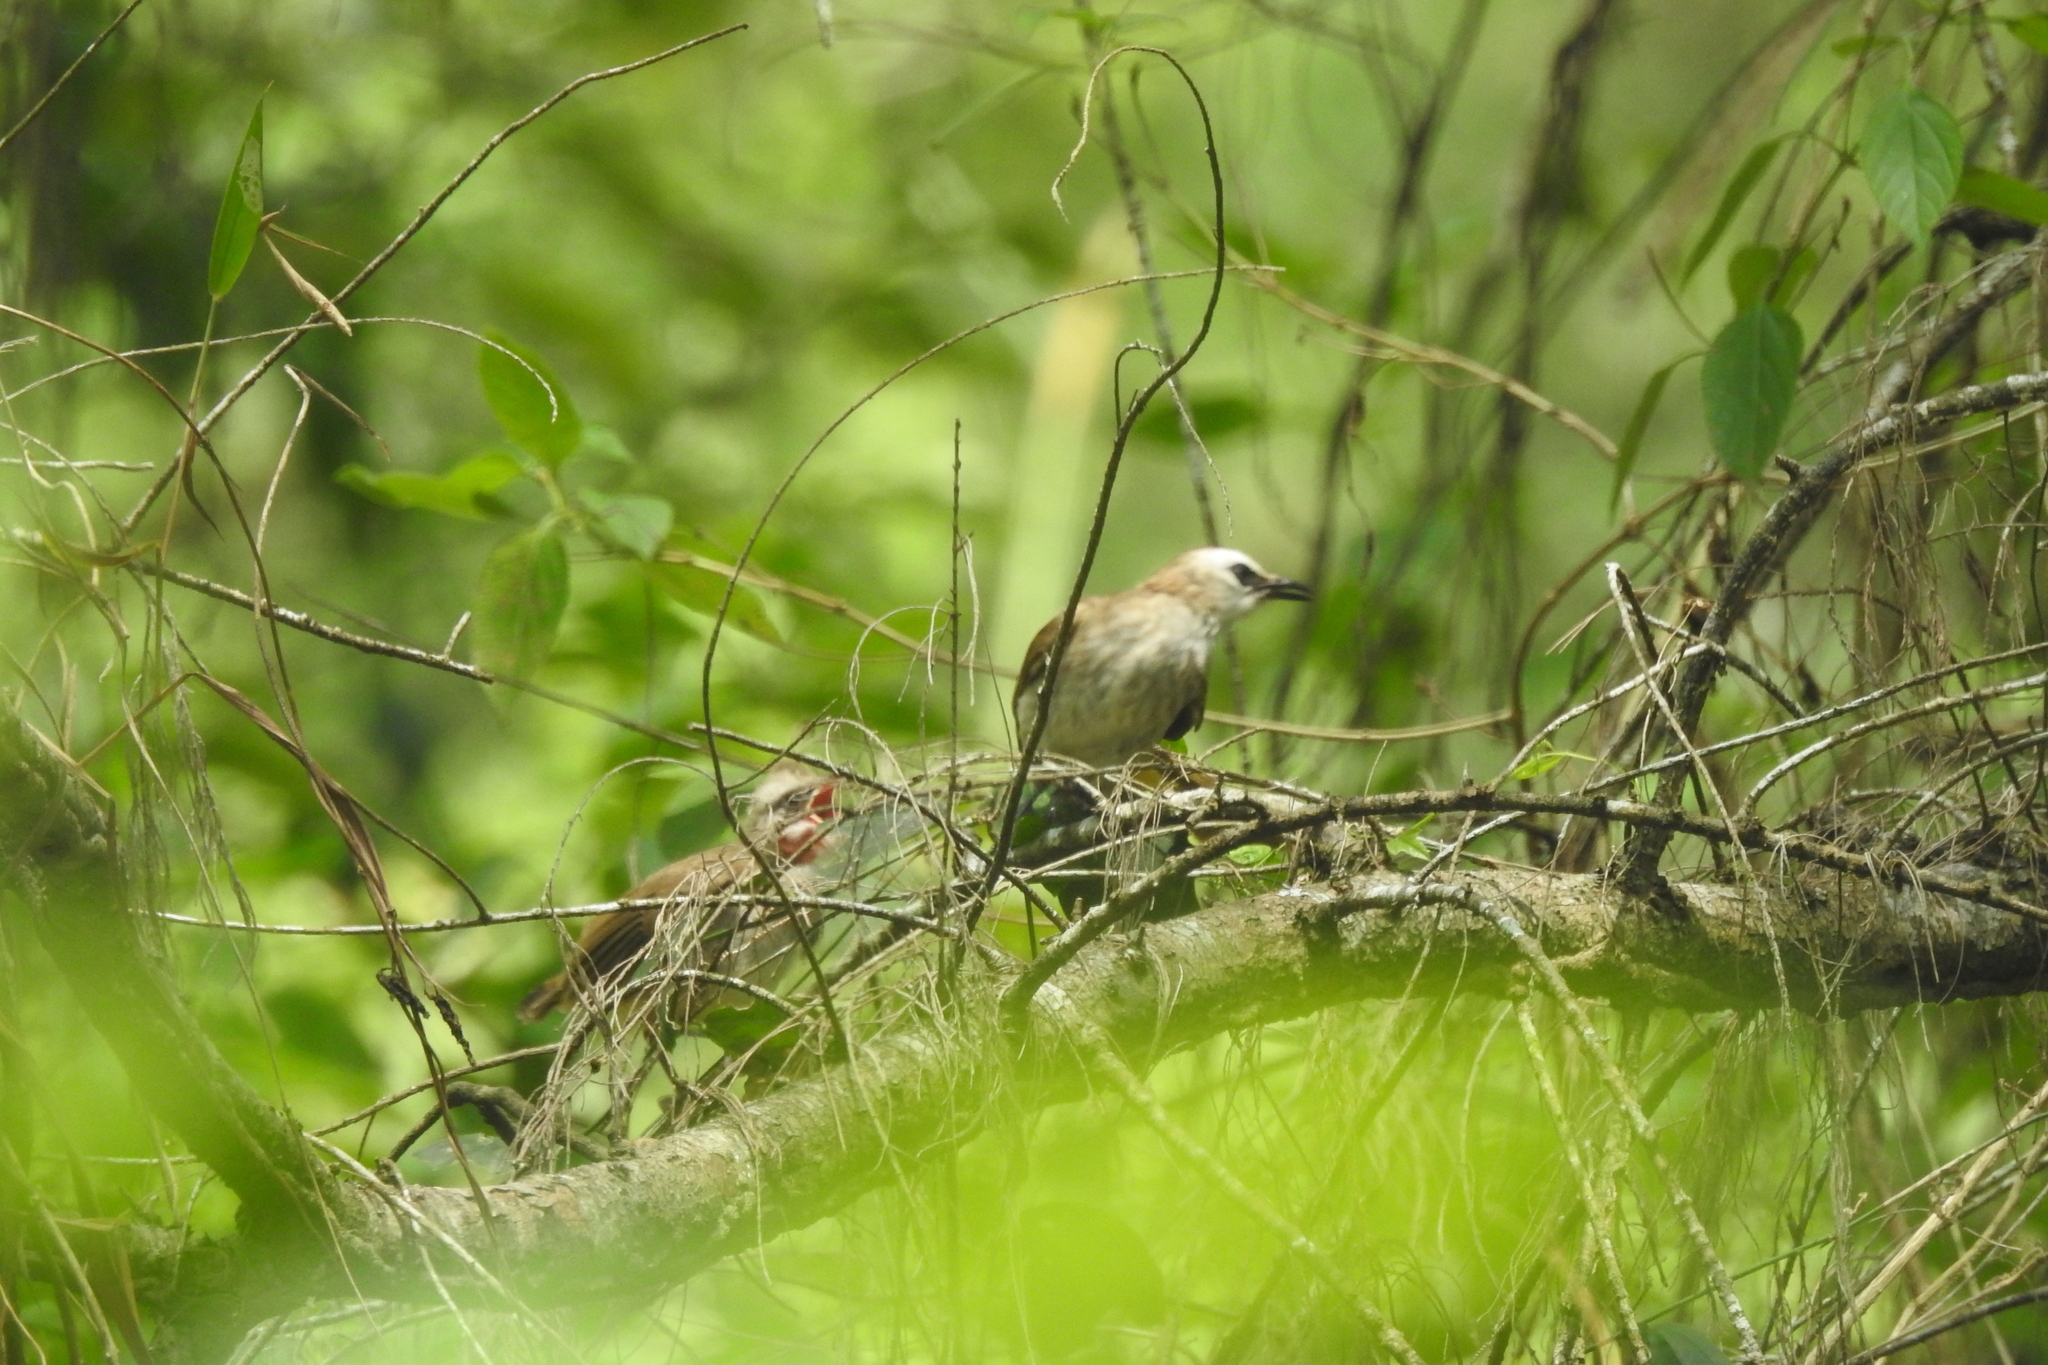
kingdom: Animalia
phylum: Chordata
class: Aves
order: Passeriformes
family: Pycnonotidae
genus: Pycnonotus
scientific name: Pycnonotus goiavier
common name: Yellow-vented bulbul
